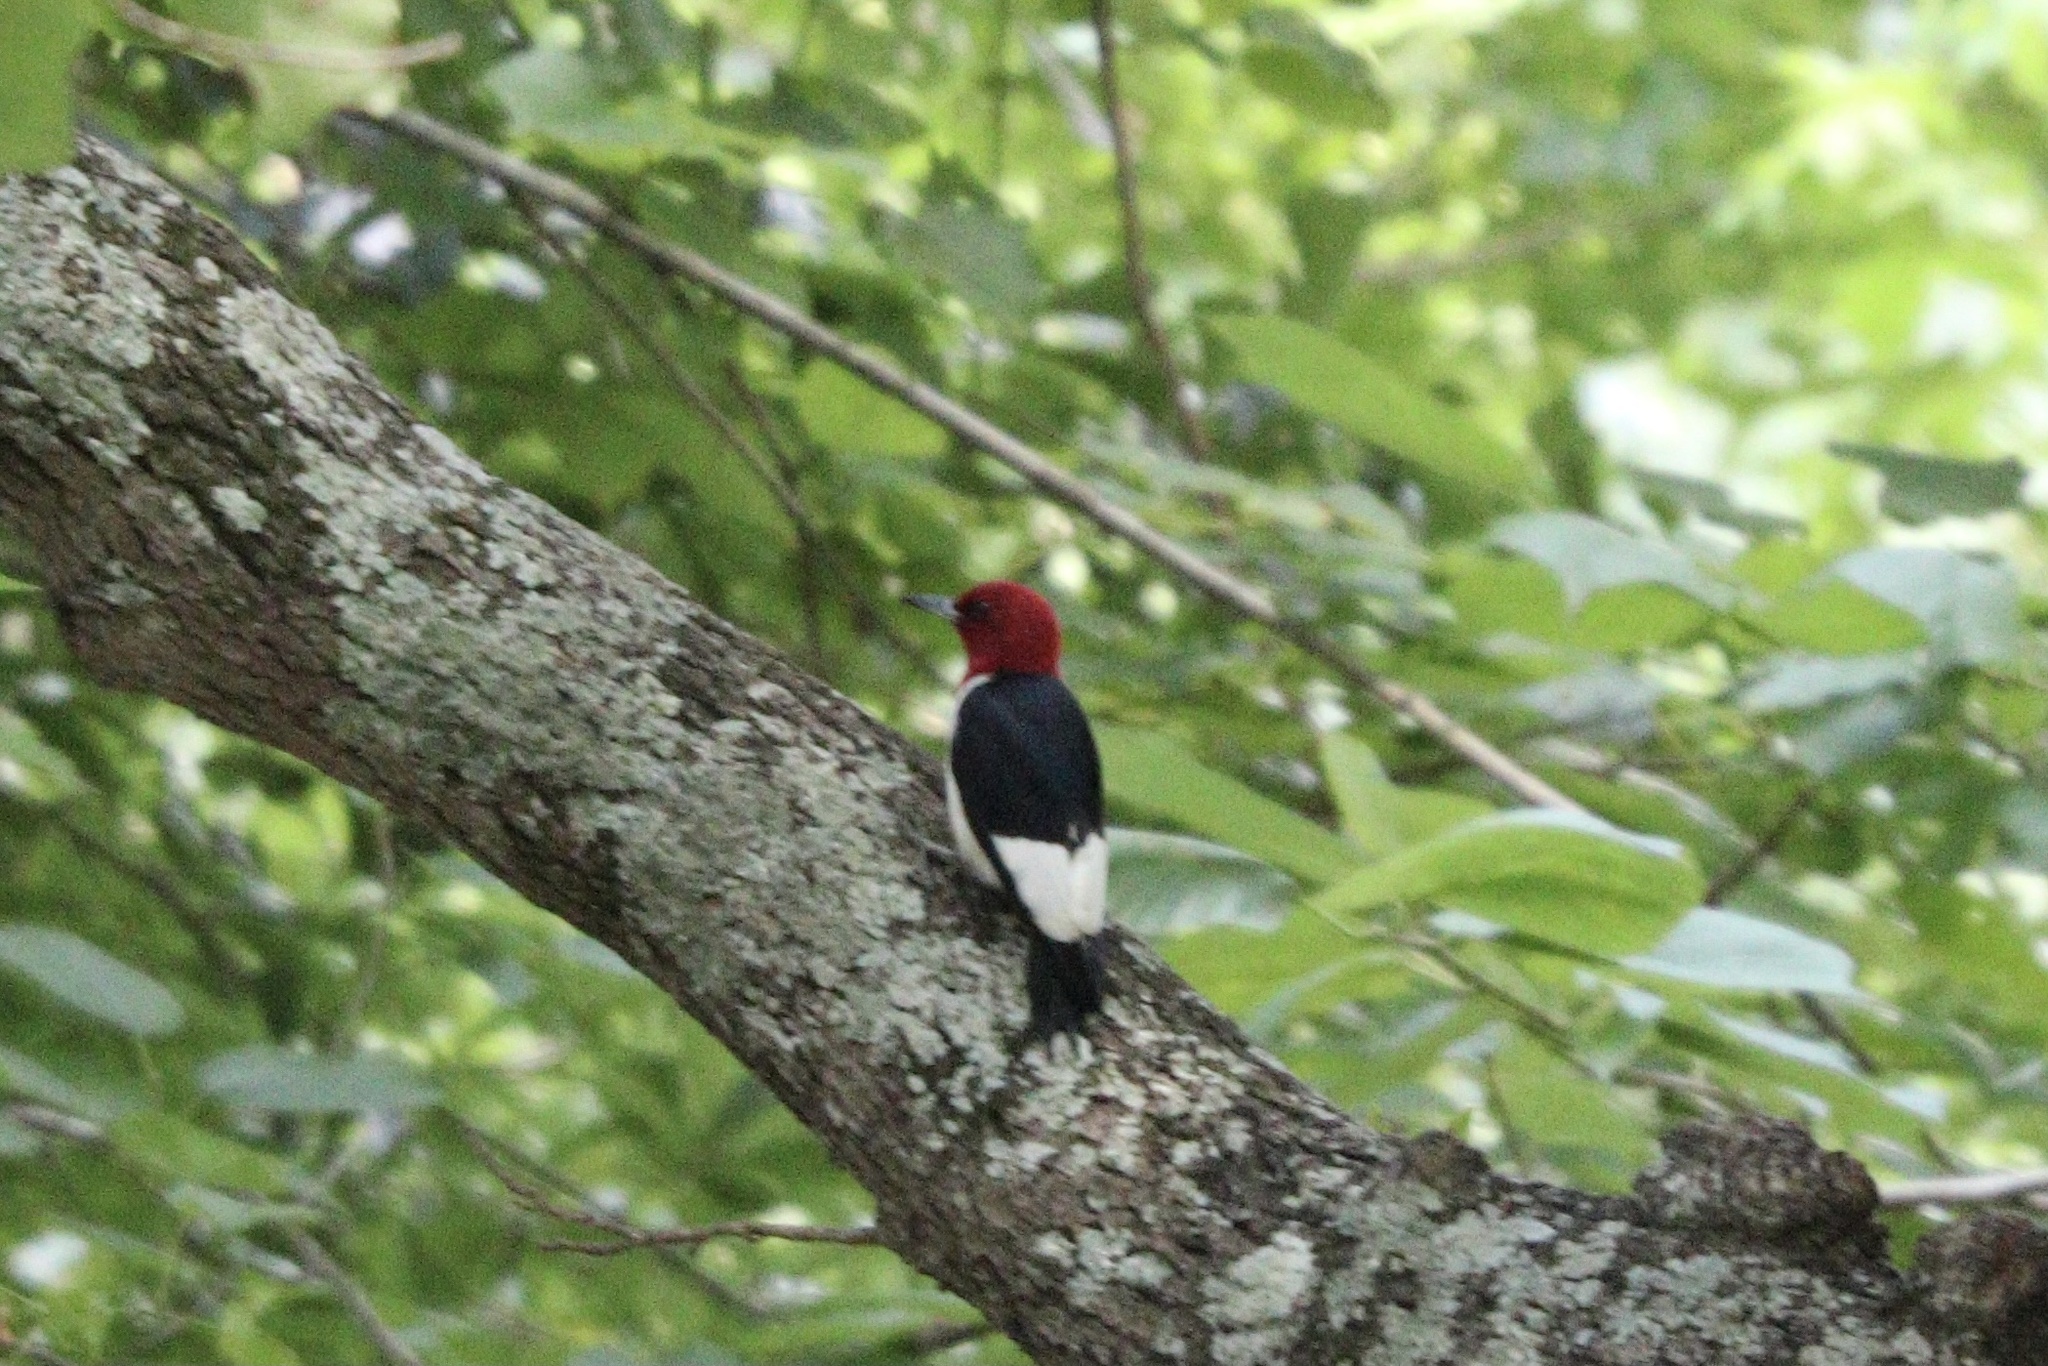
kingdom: Animalia
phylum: Chordata
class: Aves
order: Piciformes
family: Picidae
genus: Melanerpes
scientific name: Melanerpes erythrocephalus
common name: Red-headed woodpecker
